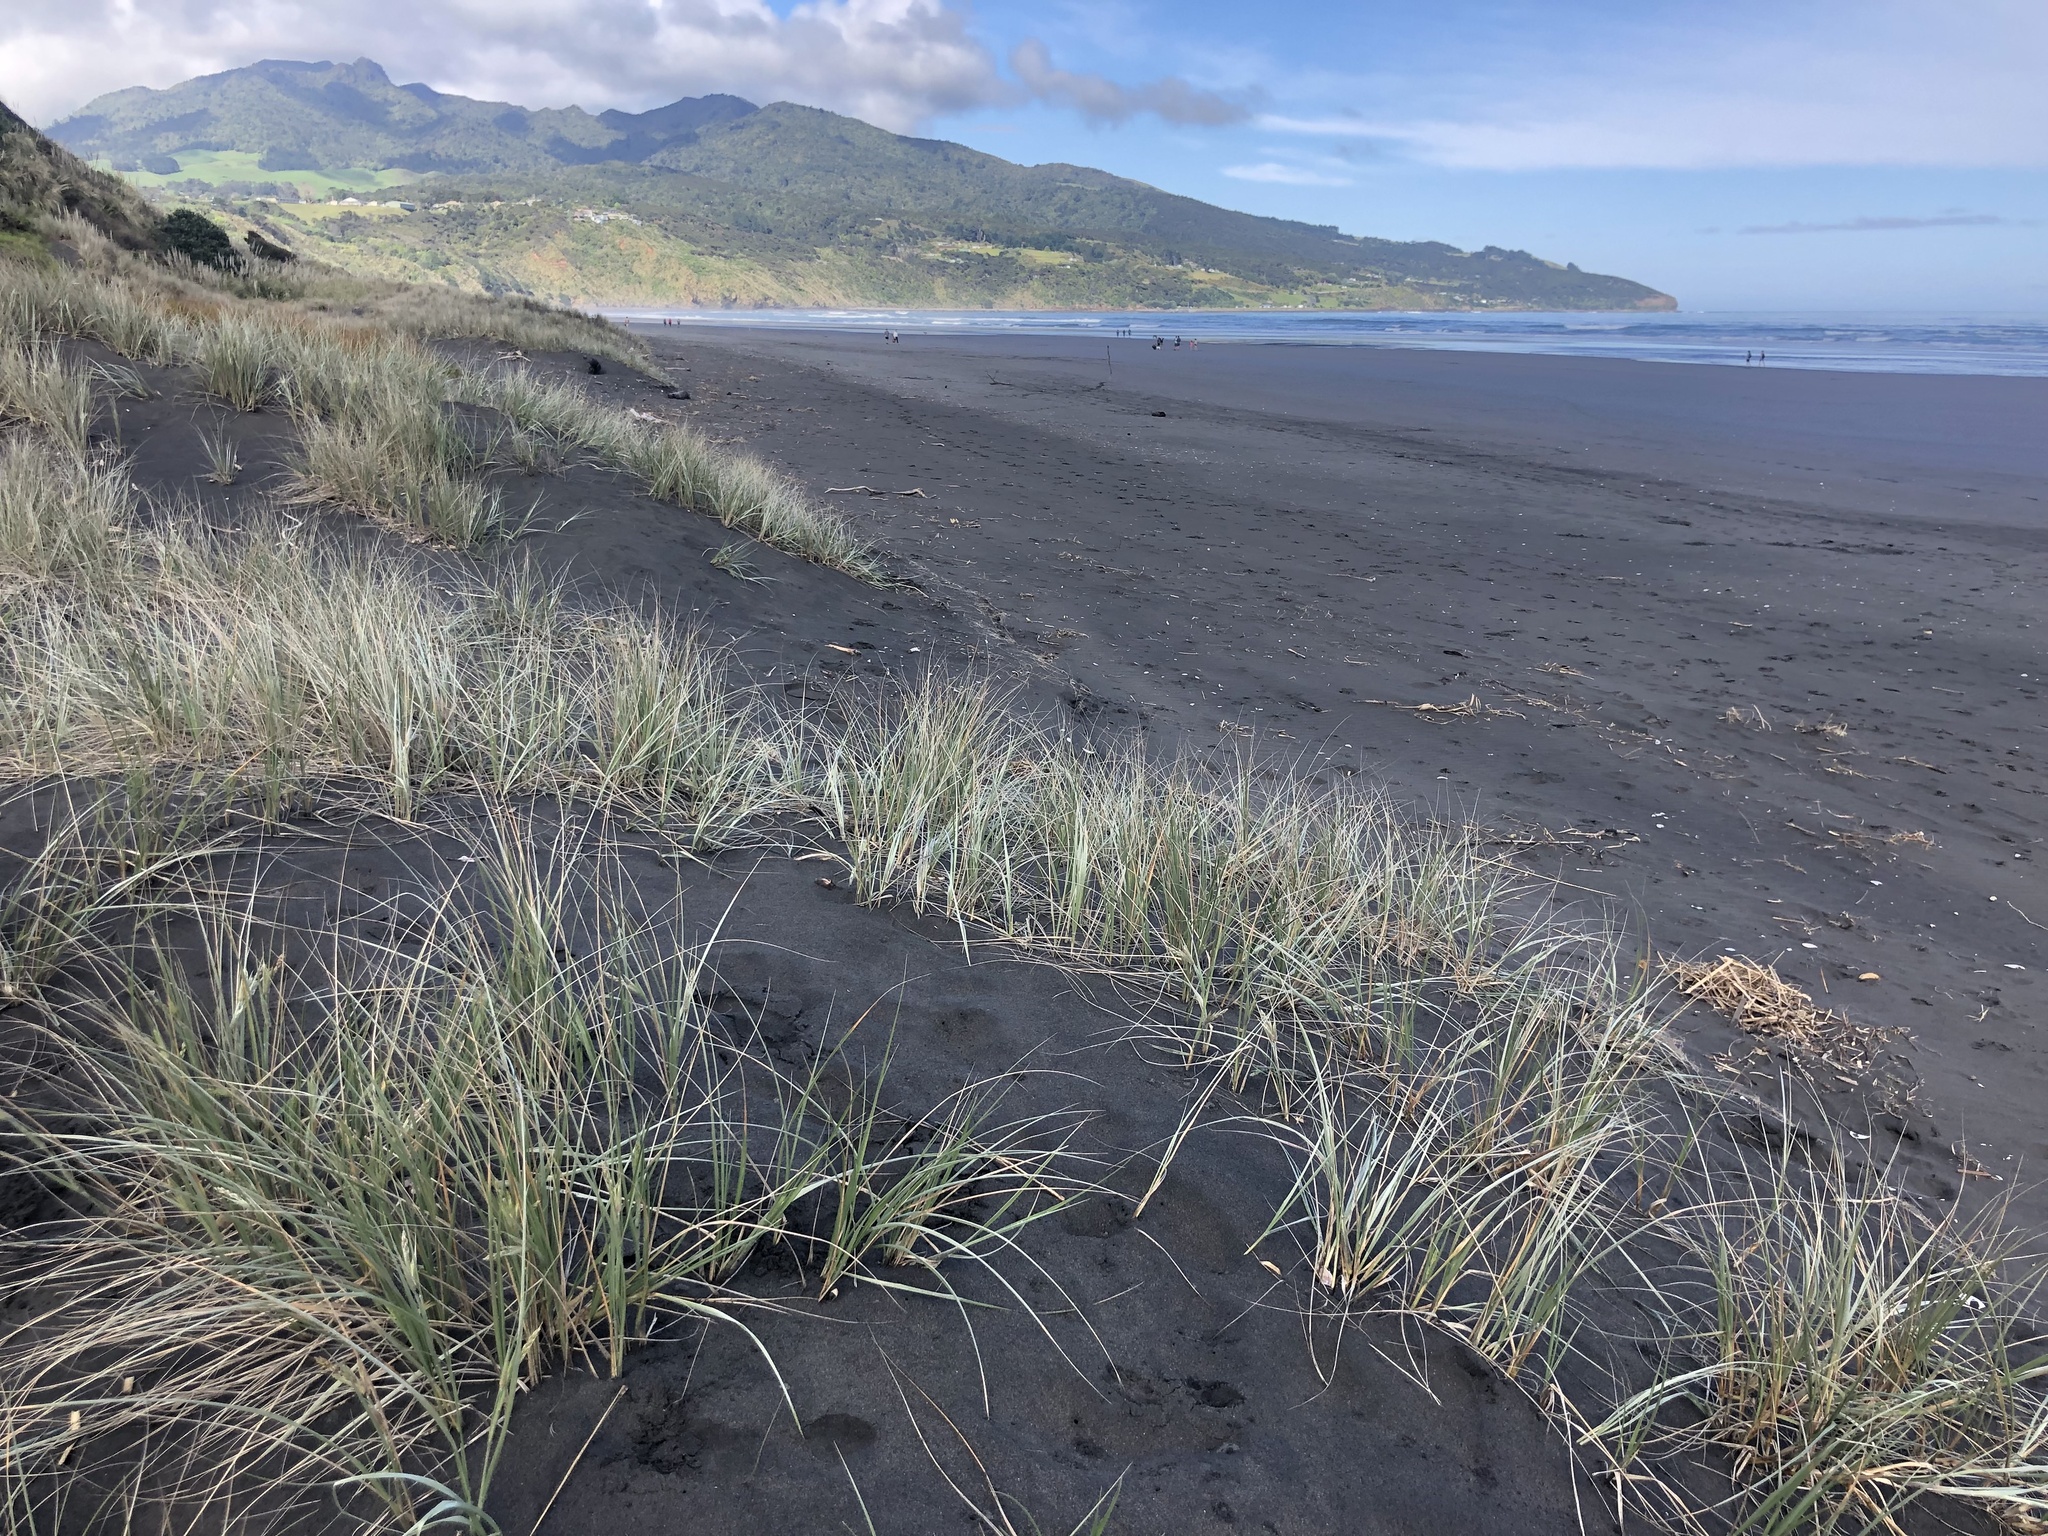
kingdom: Plantae
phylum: Tracheophyta
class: Liliopsida
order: Poales
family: Poaceae
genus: Spinifex
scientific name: Spinifex sericeus
